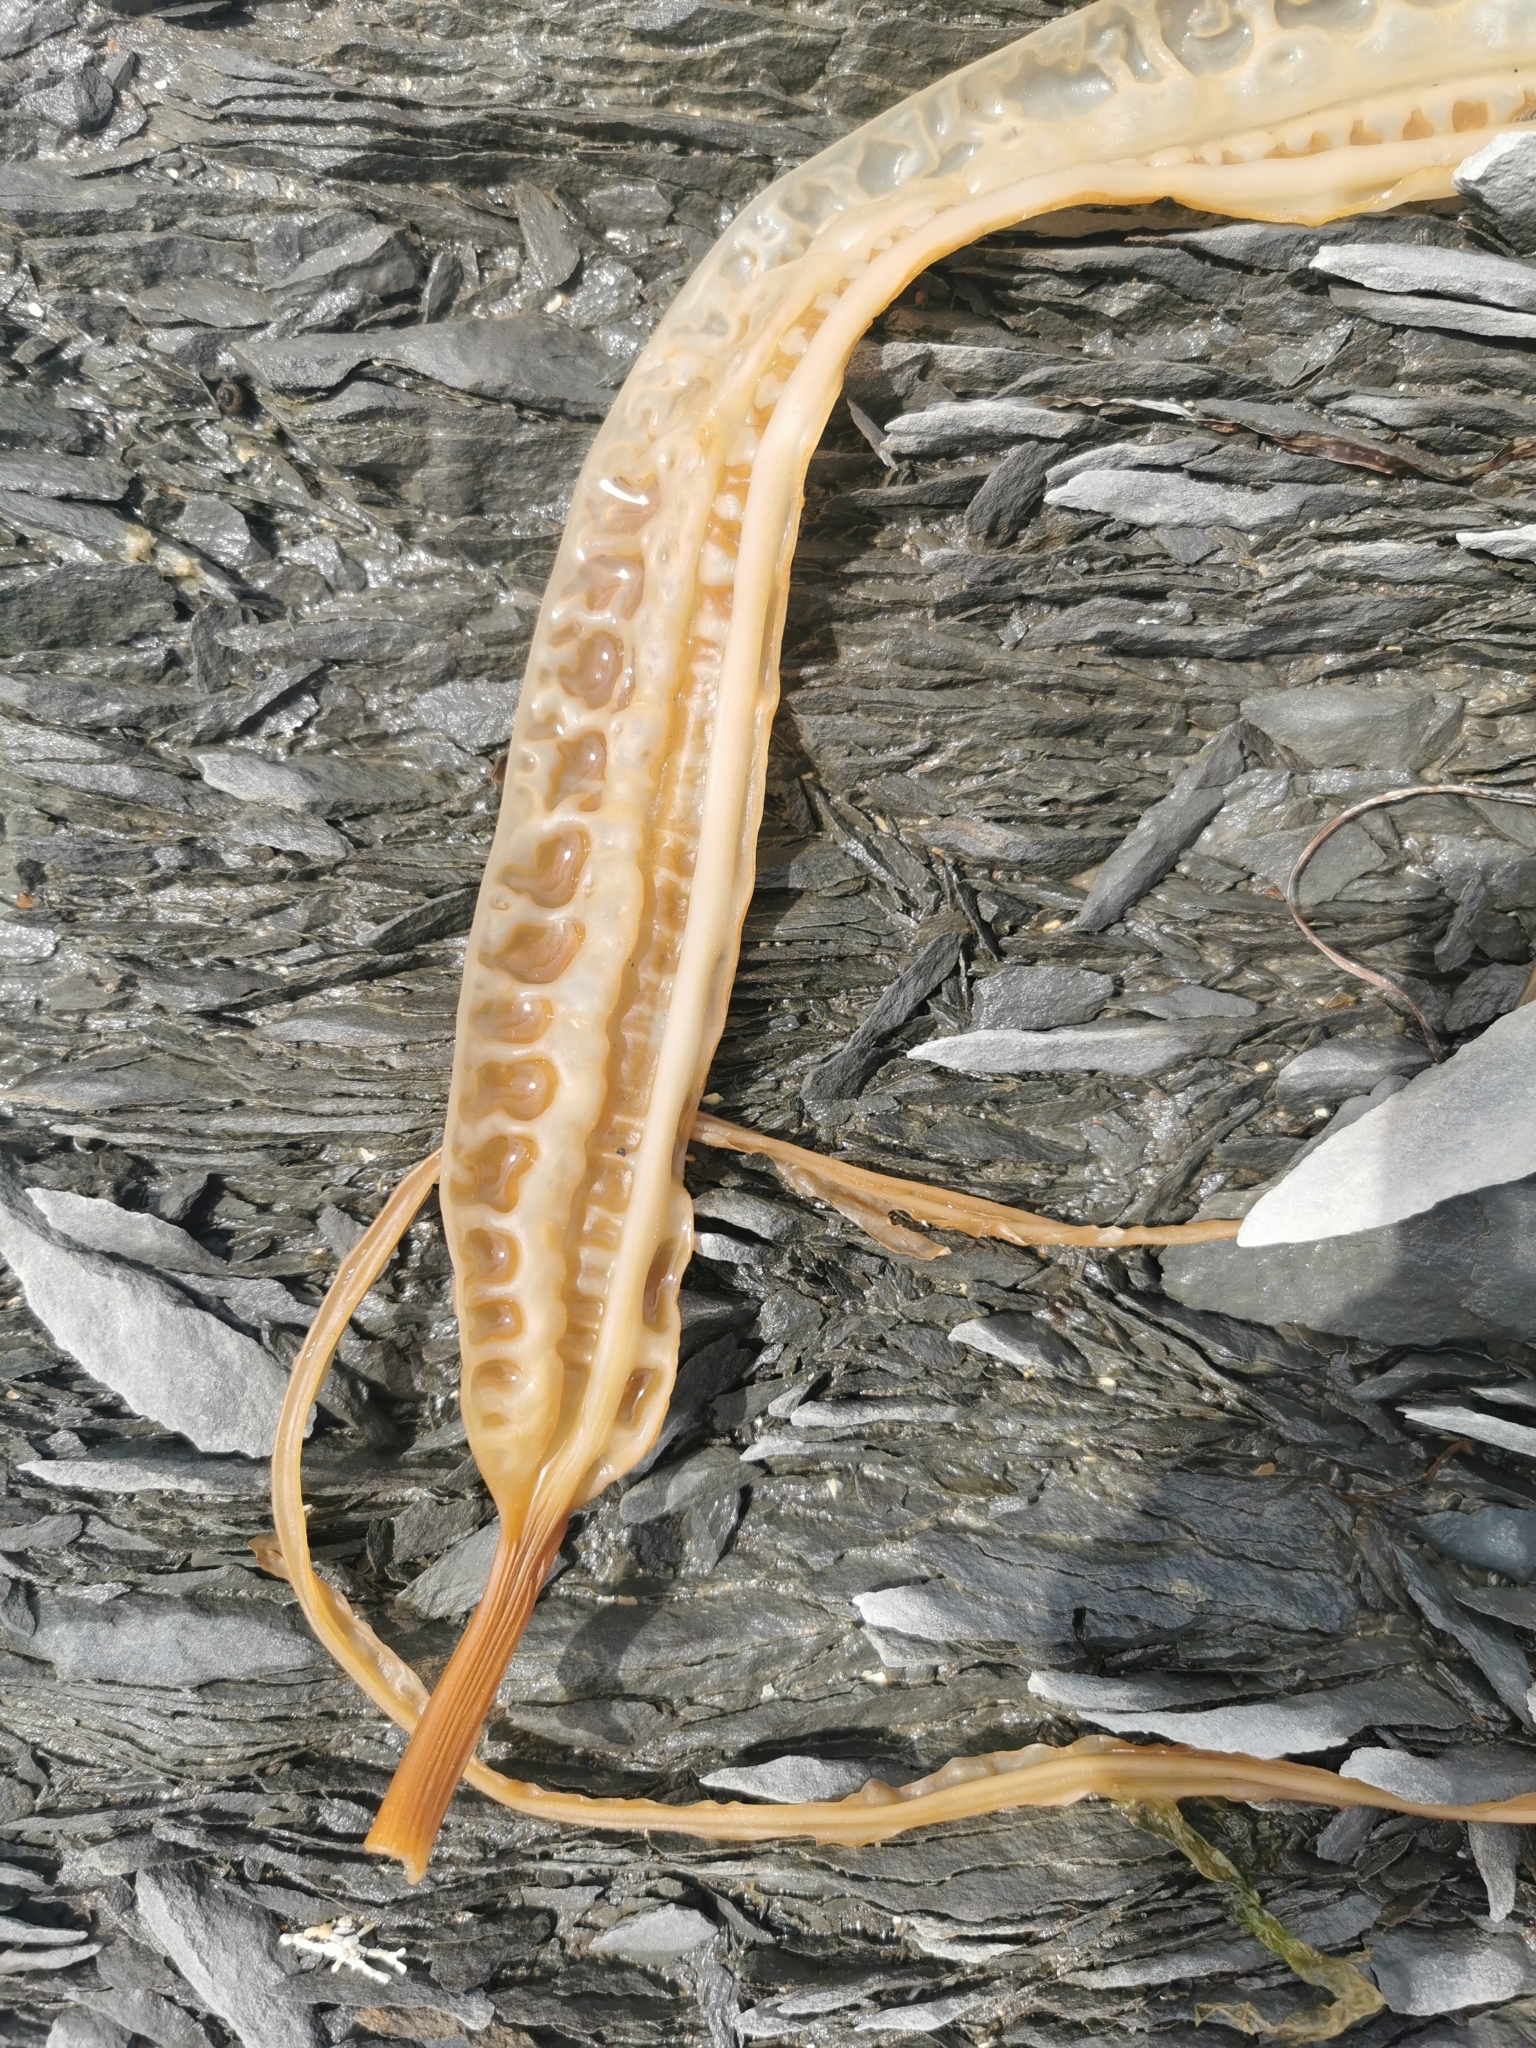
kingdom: Chromista
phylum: Ochrophyta
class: Phaeophyceae
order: Laminariales
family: Costariaceae
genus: Costaria
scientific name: Costaria costata
